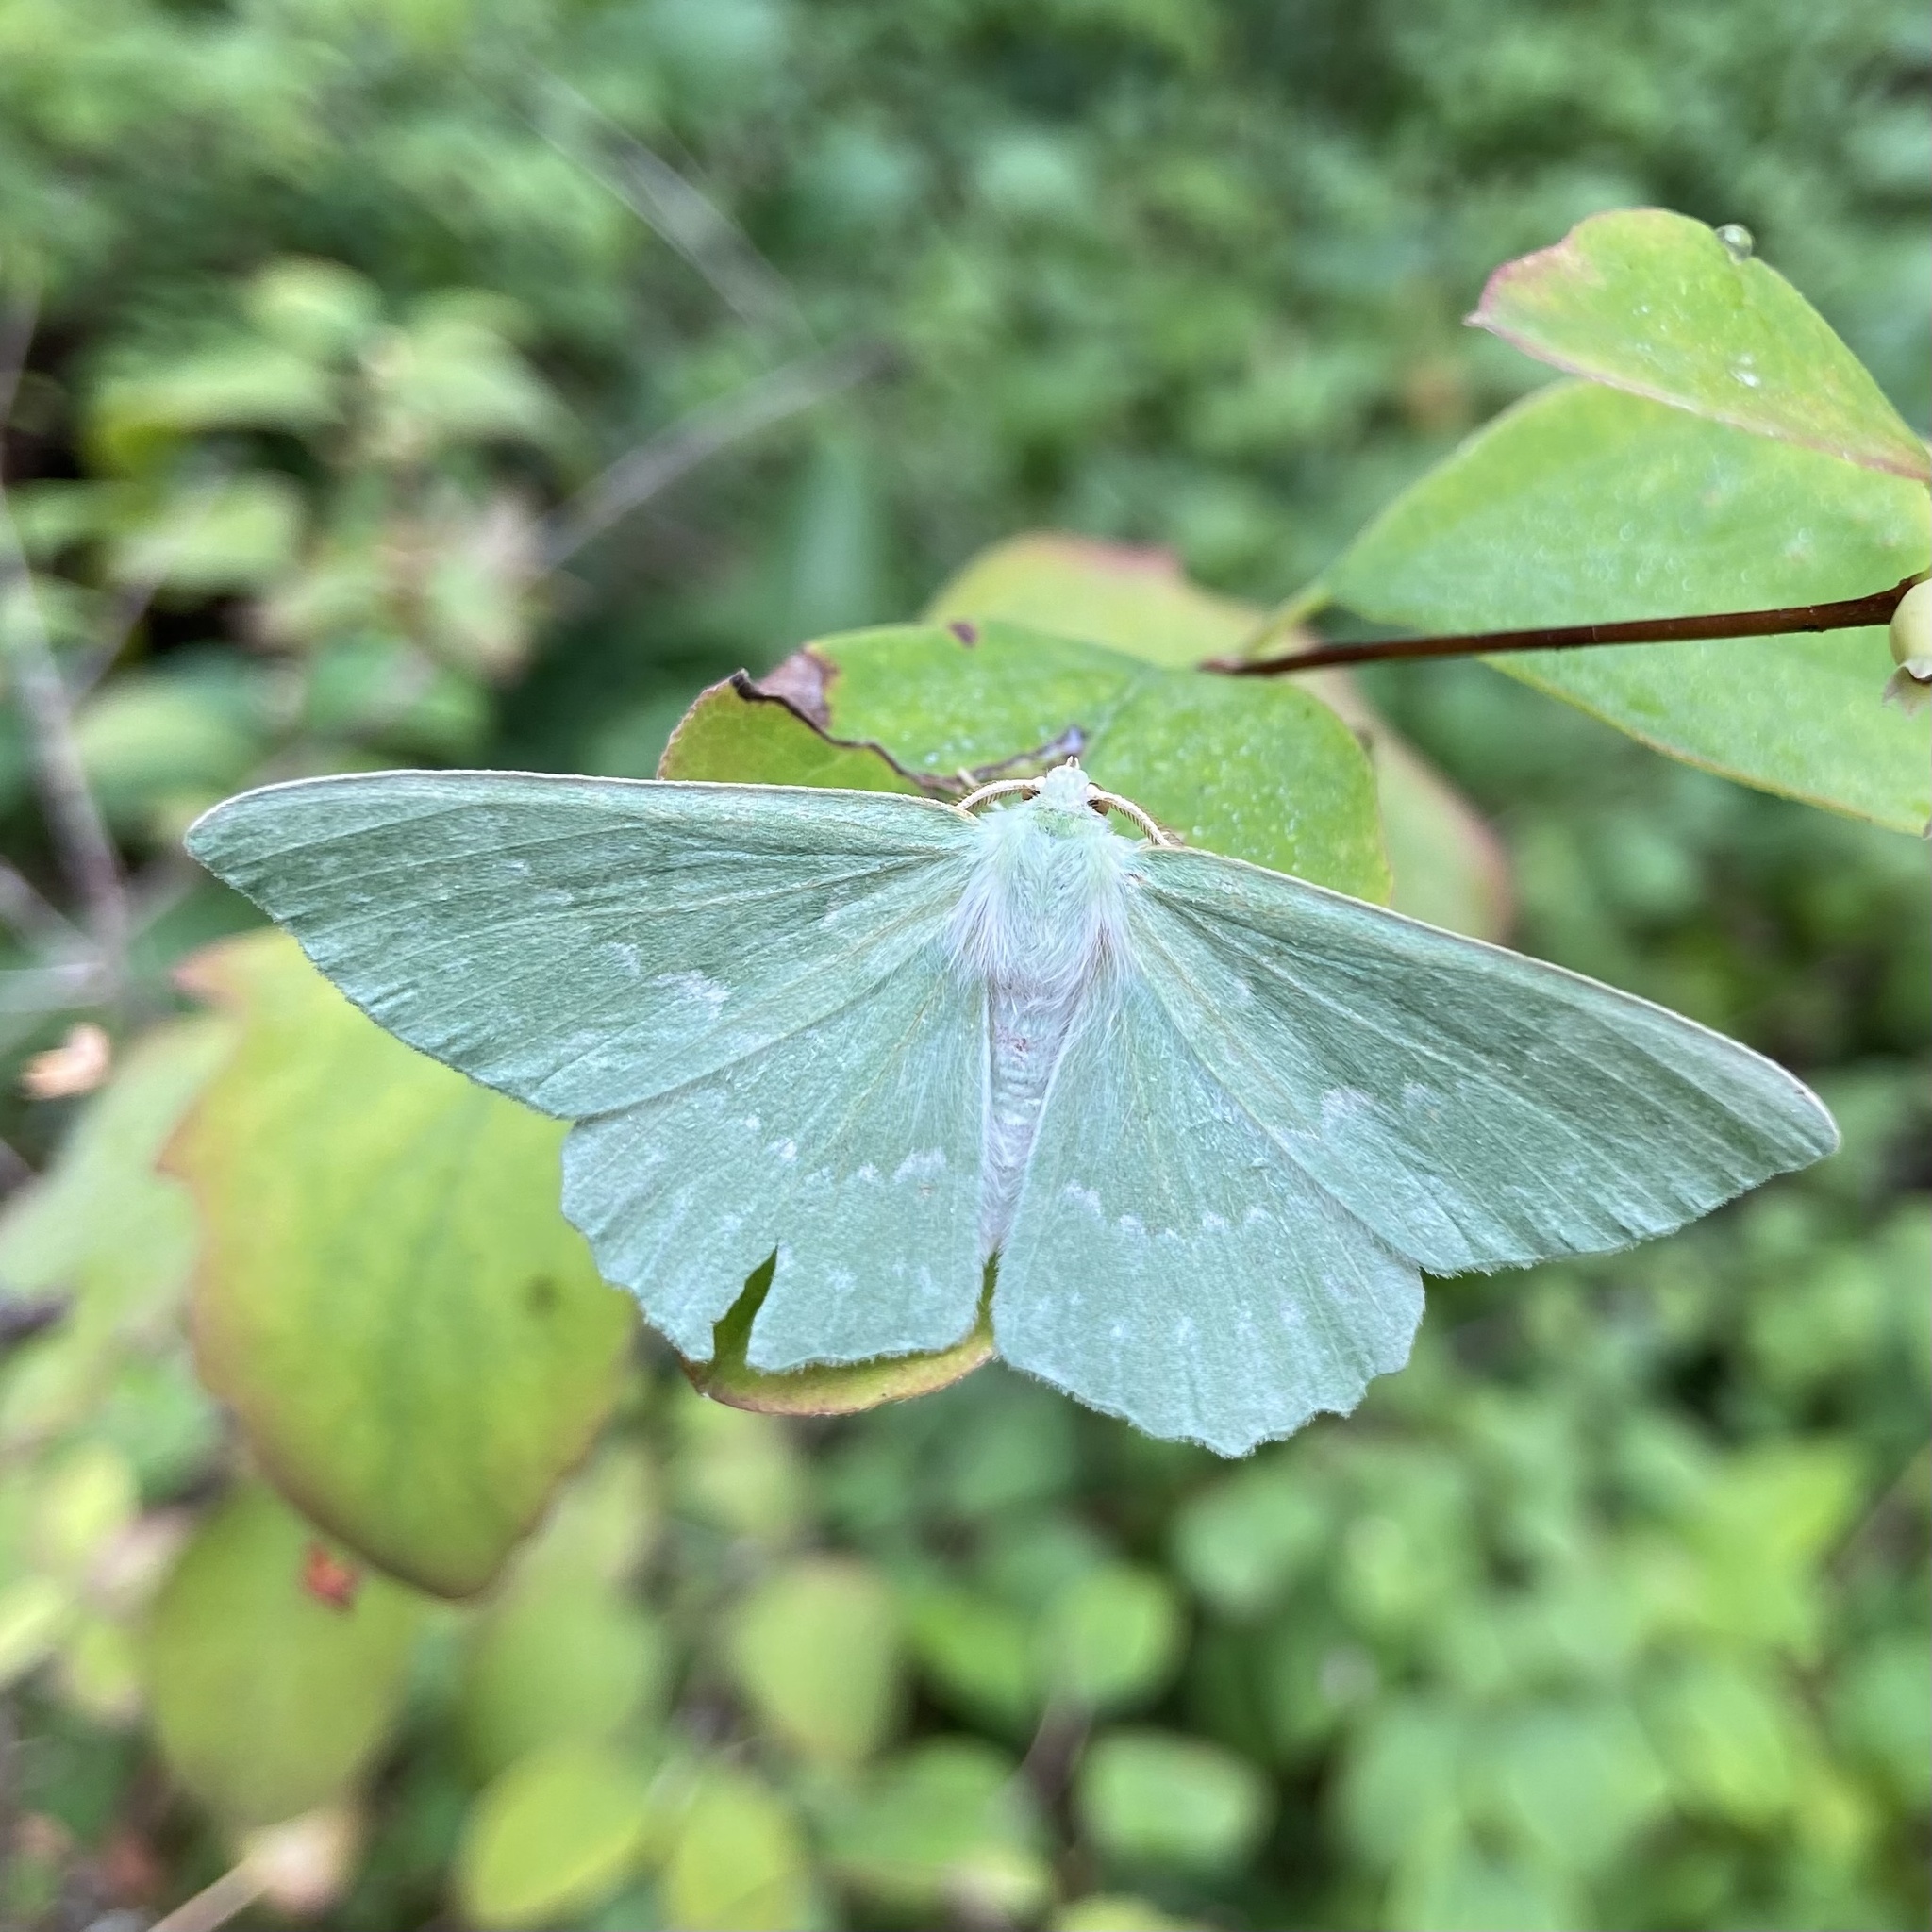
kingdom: Animalia
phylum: Arthropoda
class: Insecta
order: Lepidoptera
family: Geometridae
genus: Geometra
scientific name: Geometra papilionaria
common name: Large emerald
